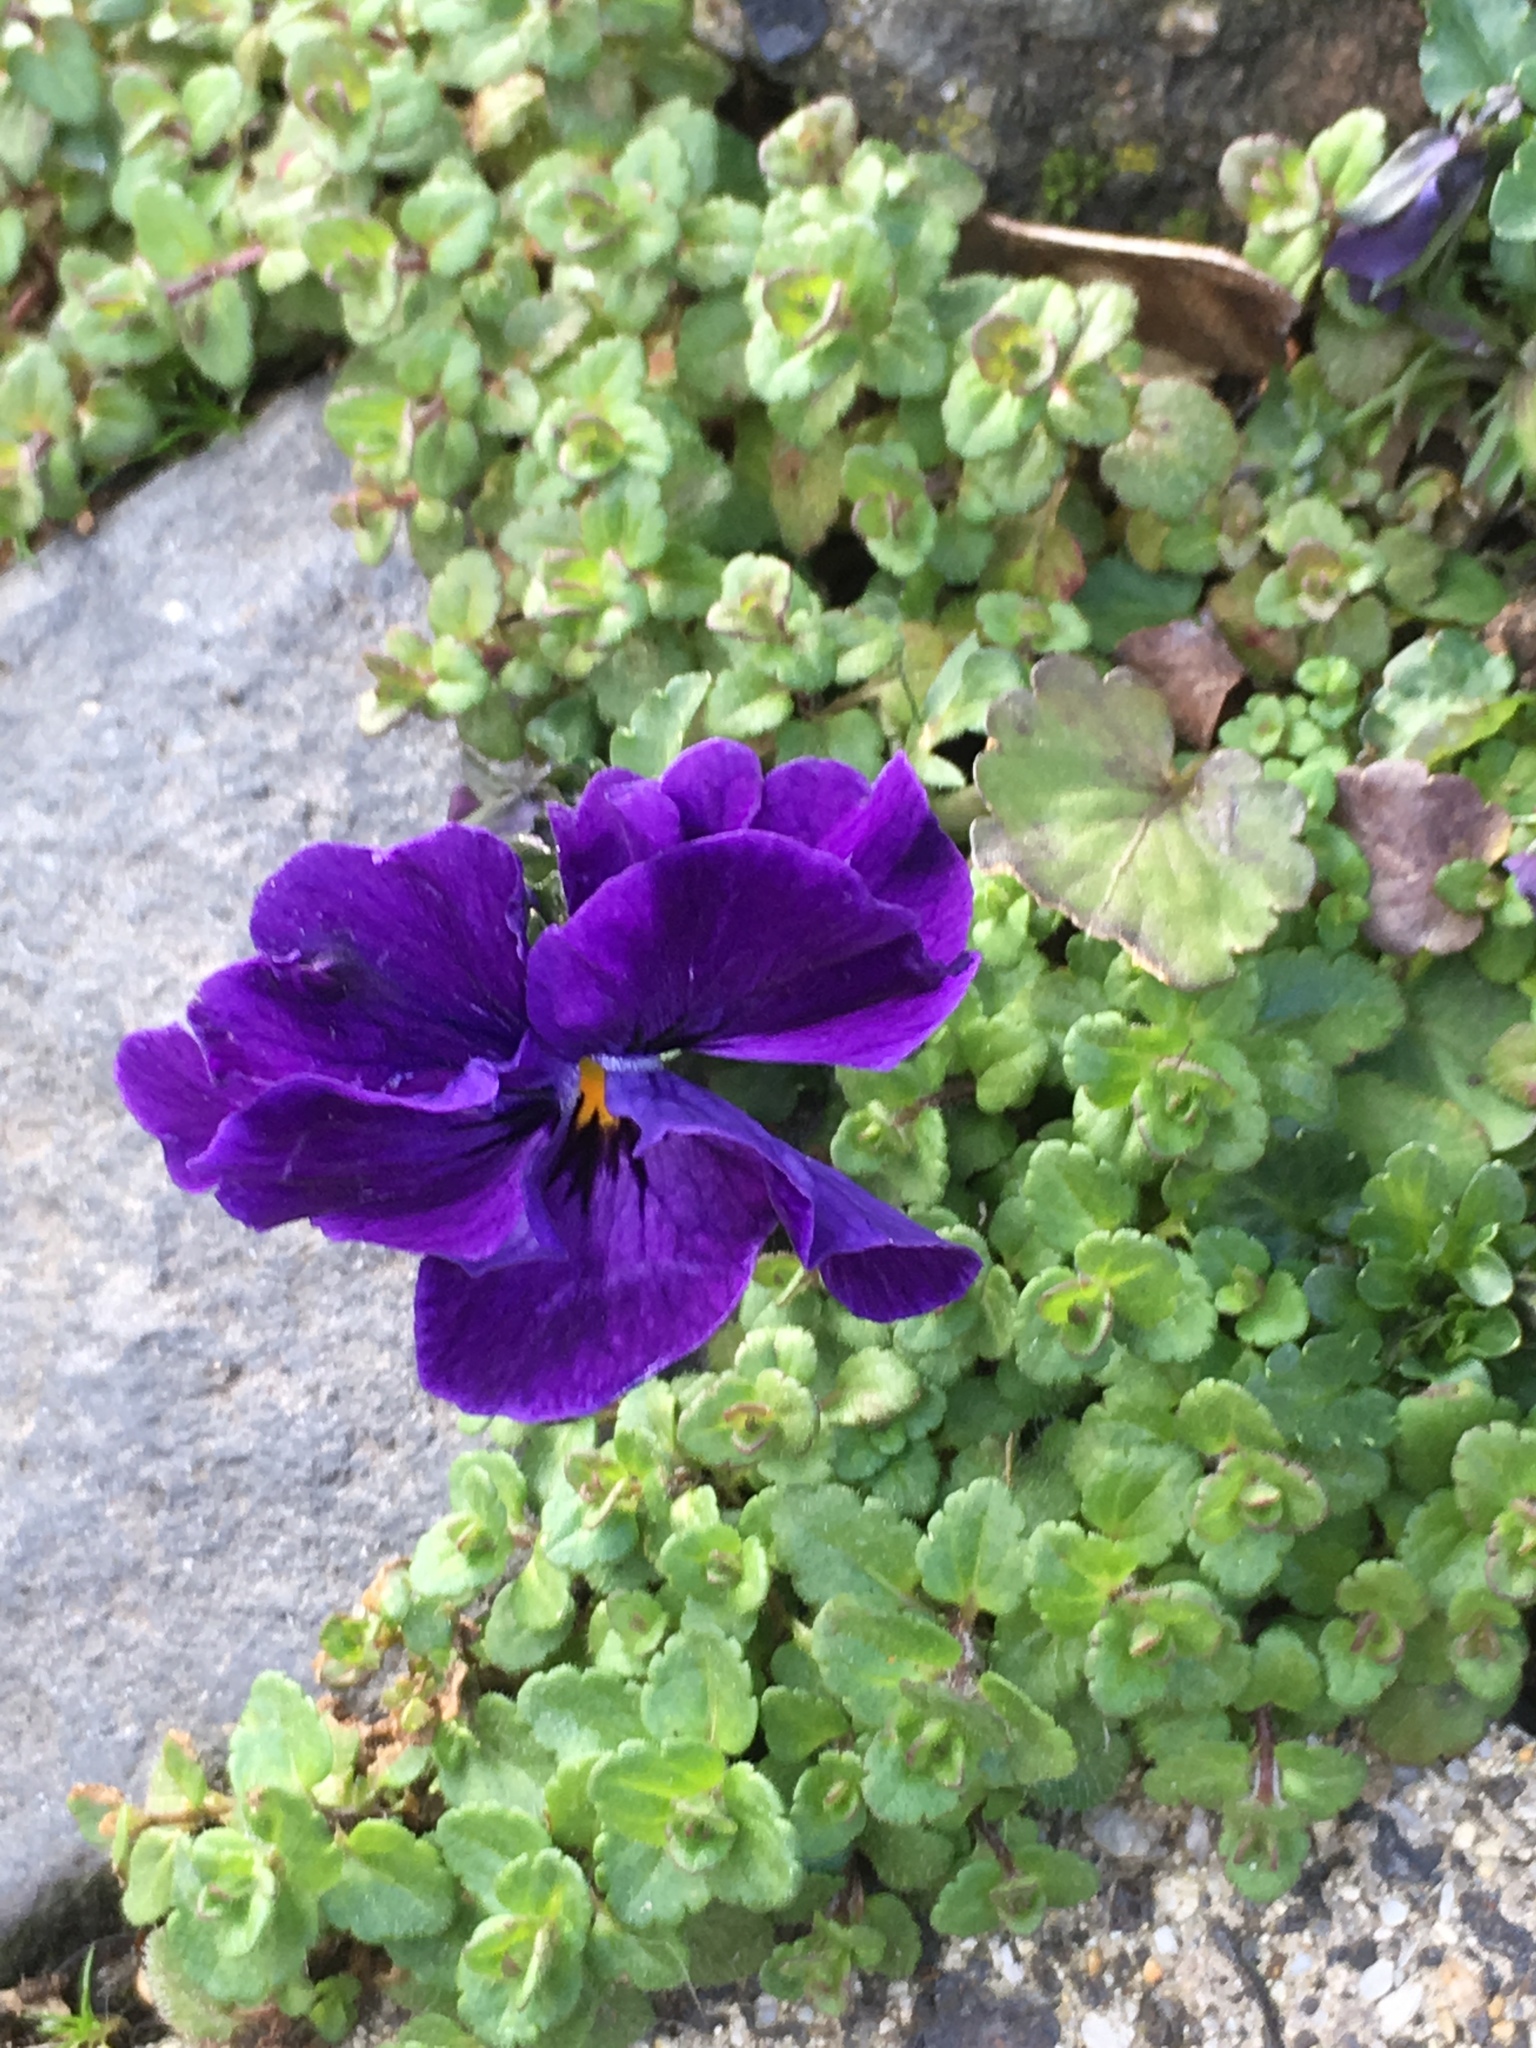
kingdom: Plantae
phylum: Tracheophyta
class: Magnoliopsida
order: Malpighiales
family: Violaceae
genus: Viola
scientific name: Viola wittrockiana
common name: Garden pansy
